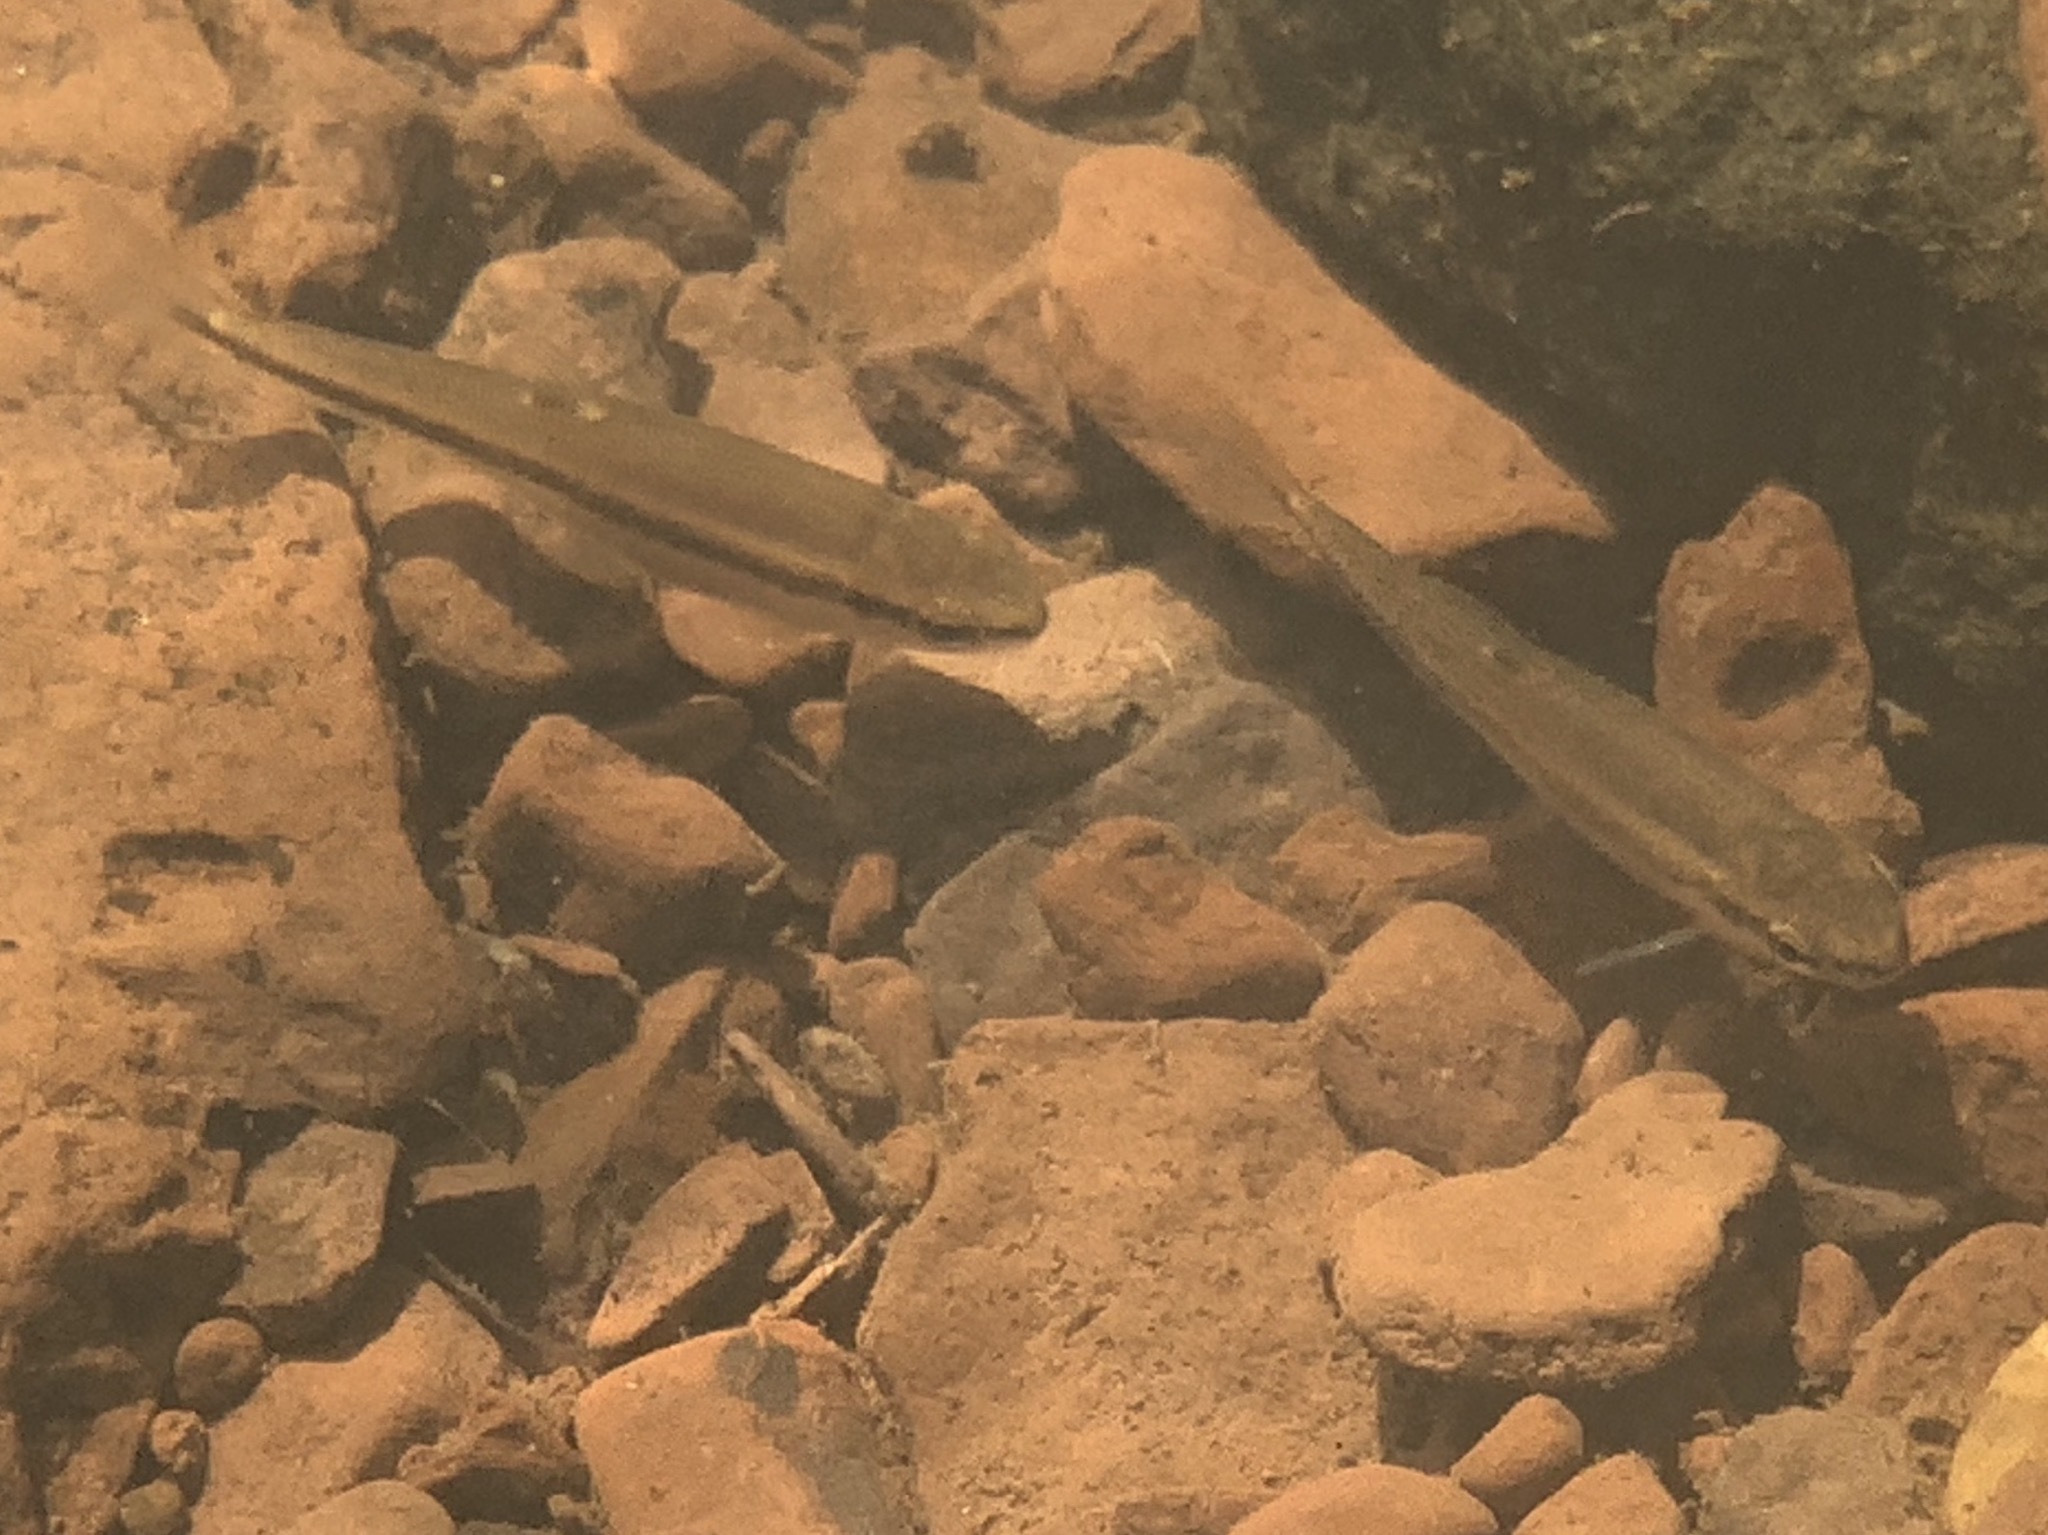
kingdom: Animalia
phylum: Chordata
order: Cypriniformes
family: Cyprinidae
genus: Semotilus
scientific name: Semotilus atromaculatus
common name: Creek chub
